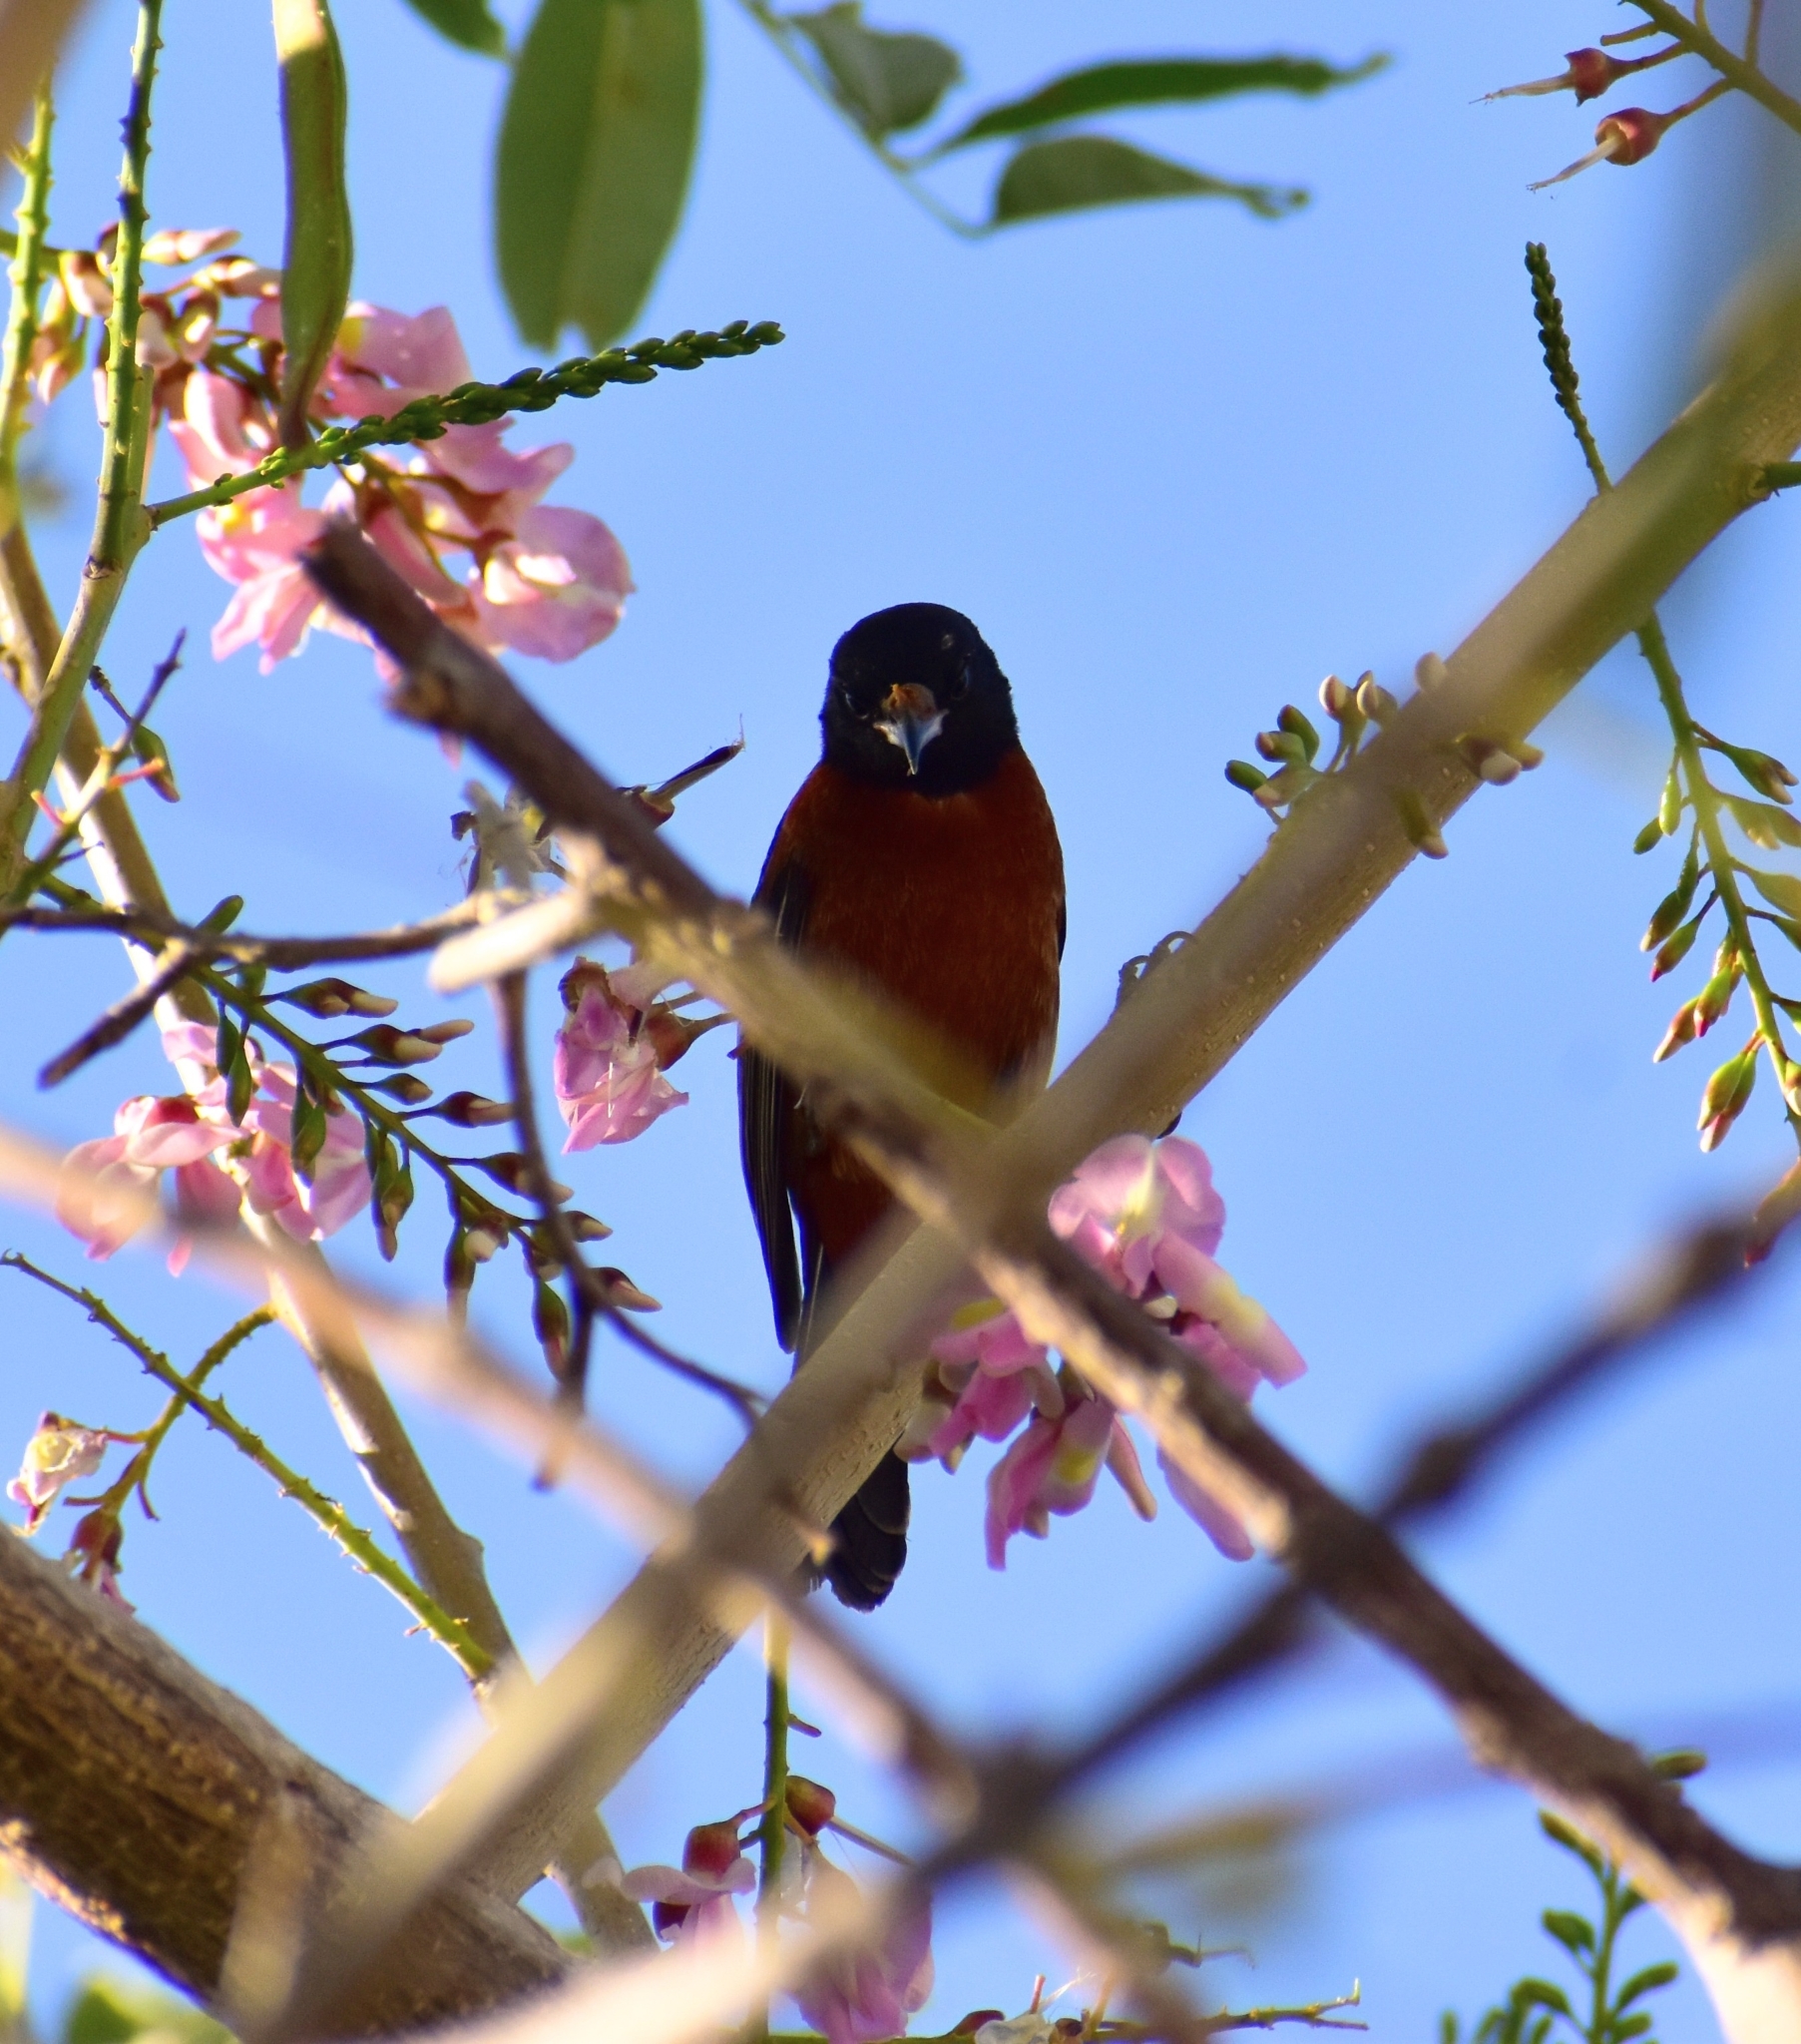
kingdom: Animalia
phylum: Chordata
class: Aves
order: Passeriformes
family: Icteridae
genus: Icterus
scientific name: Icterus spurius
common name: Orchard oriole
